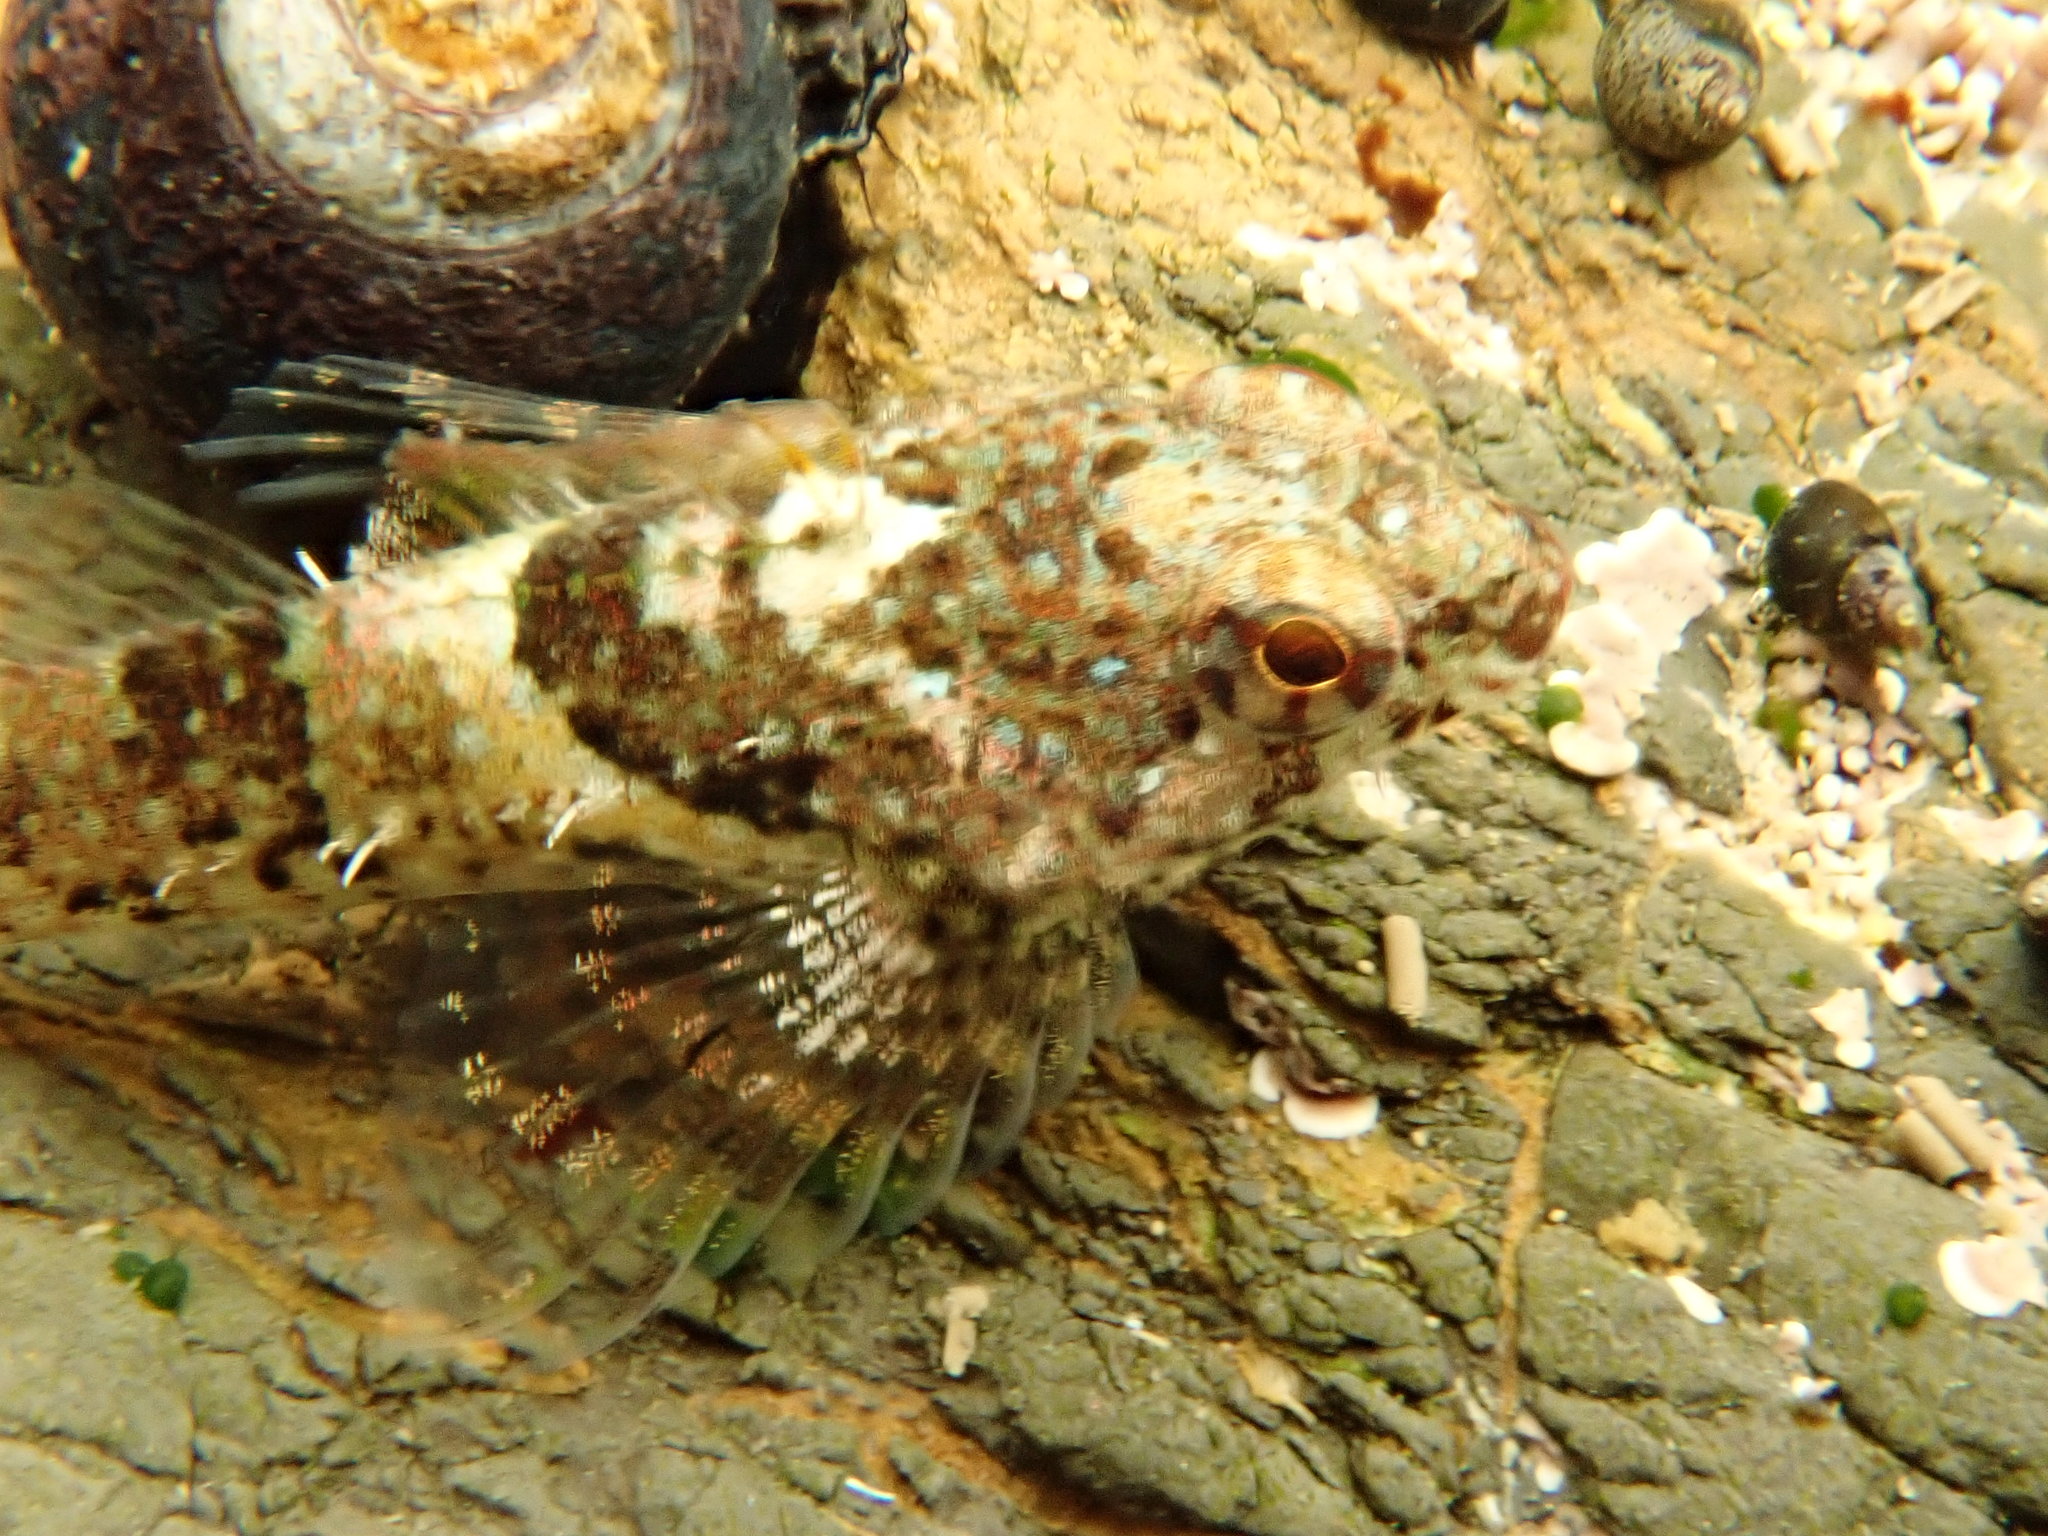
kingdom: Animalia
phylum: Chordata
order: Scorpaeniformes
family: Cottidae
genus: Clinocottus
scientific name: Clinocottus analis
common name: Woolly sculpin
